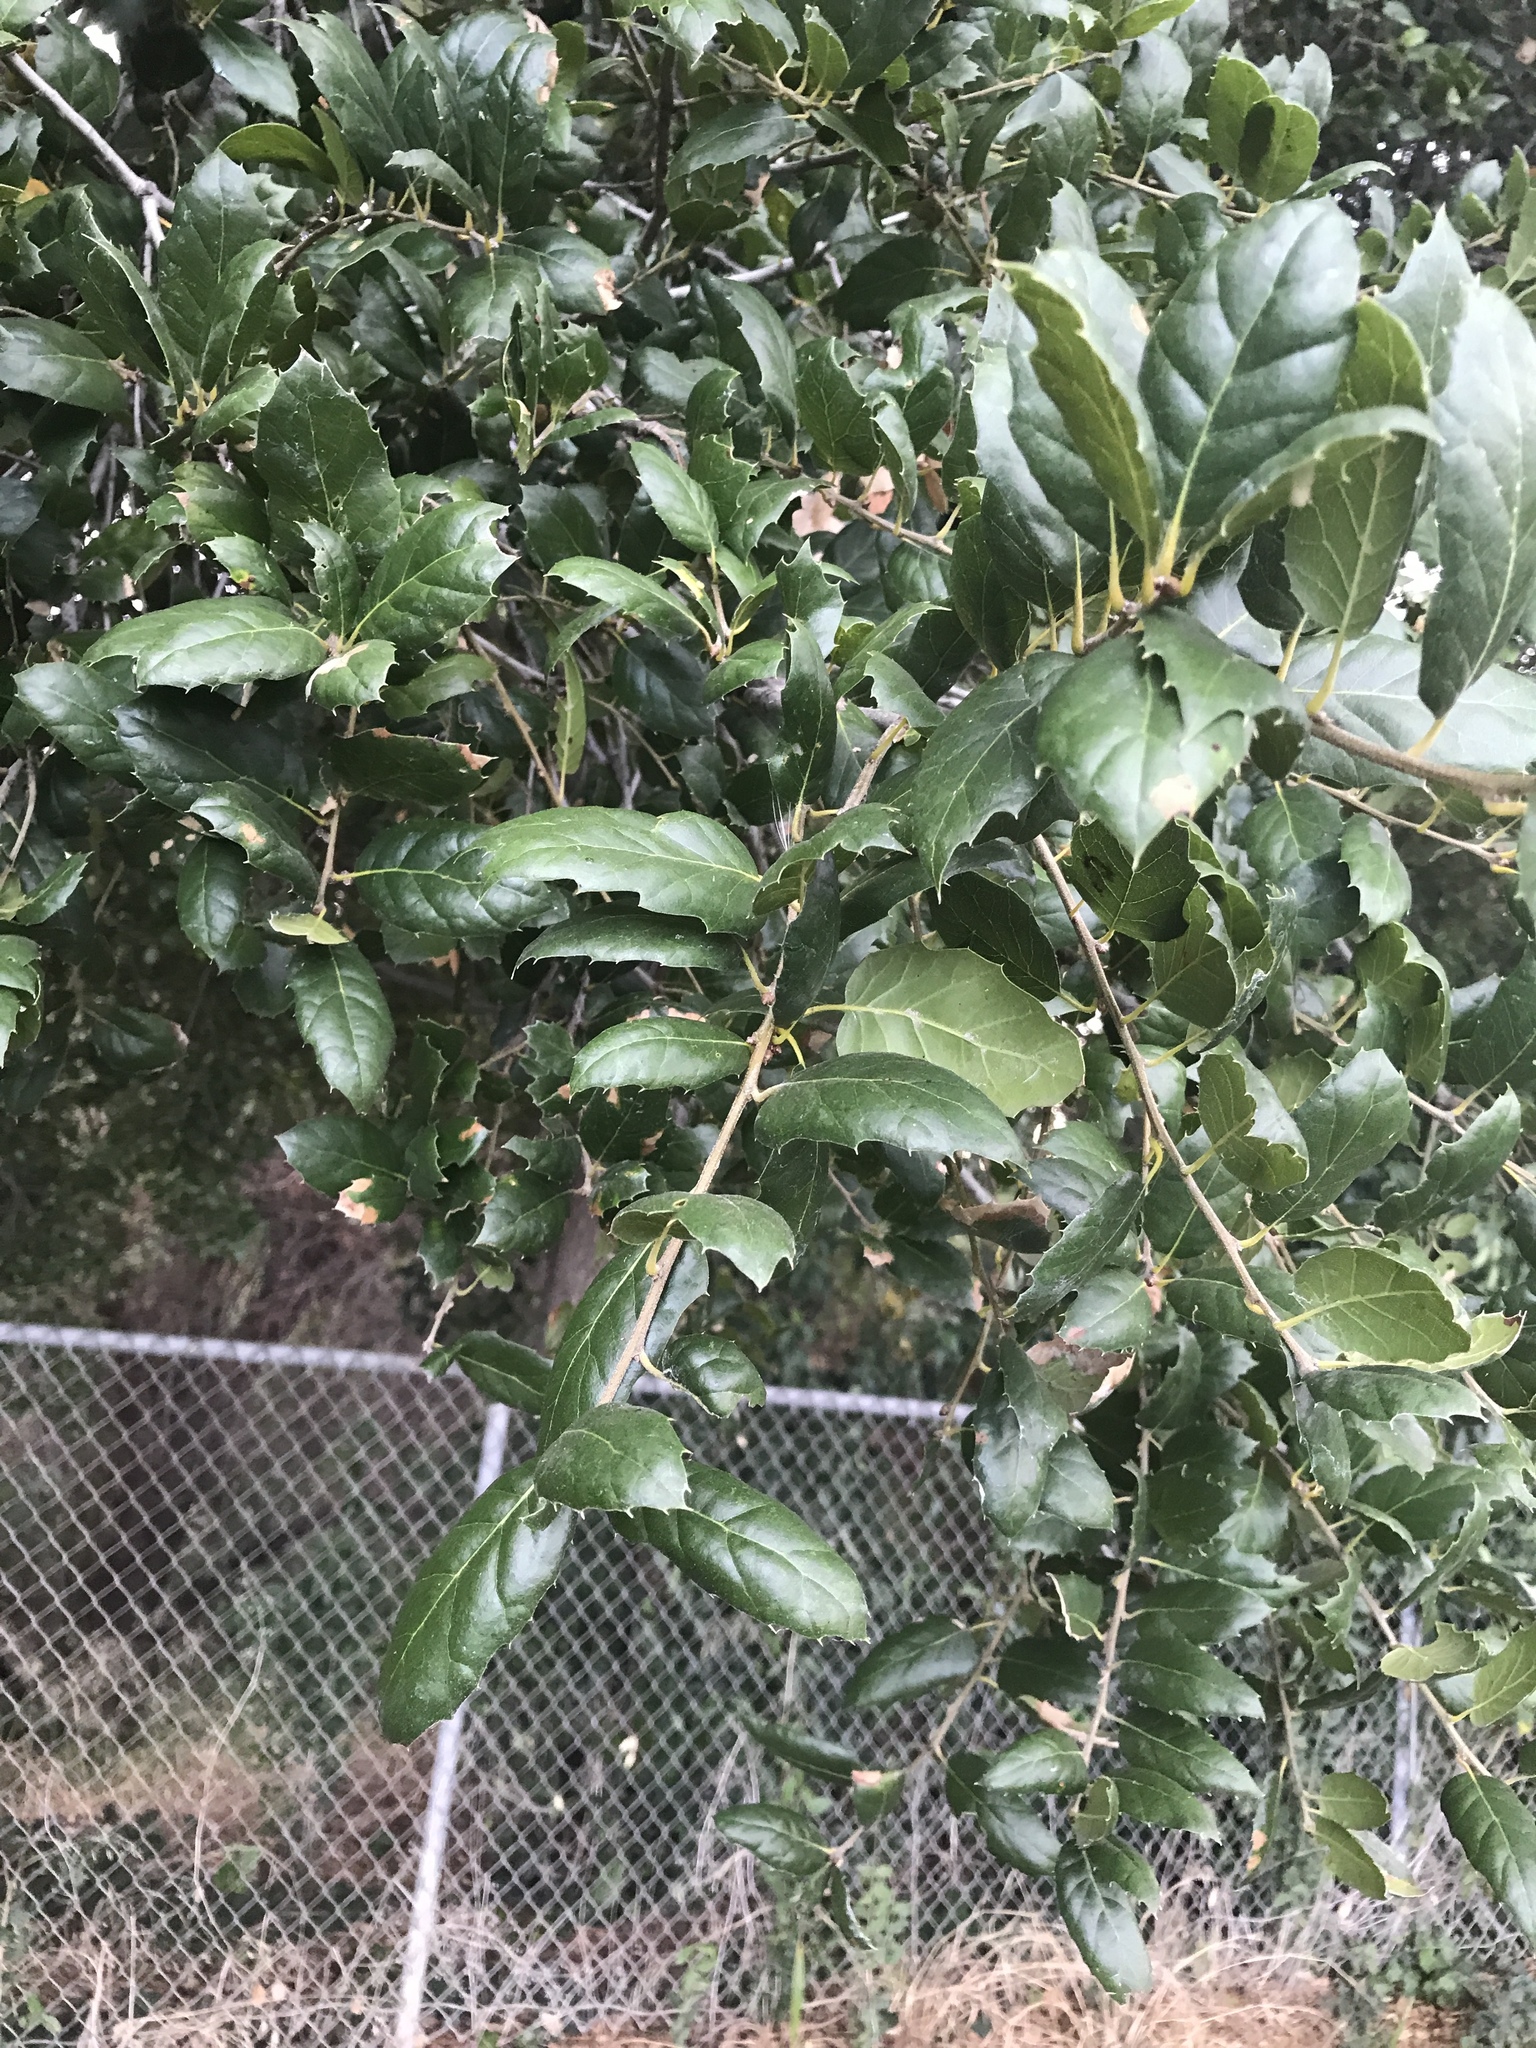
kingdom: Plantae
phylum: Tracheophyta
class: Magnoliopsida
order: Fagales
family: Fagaceae
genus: Quercus
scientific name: Quercus agrifolia
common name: California live oak
